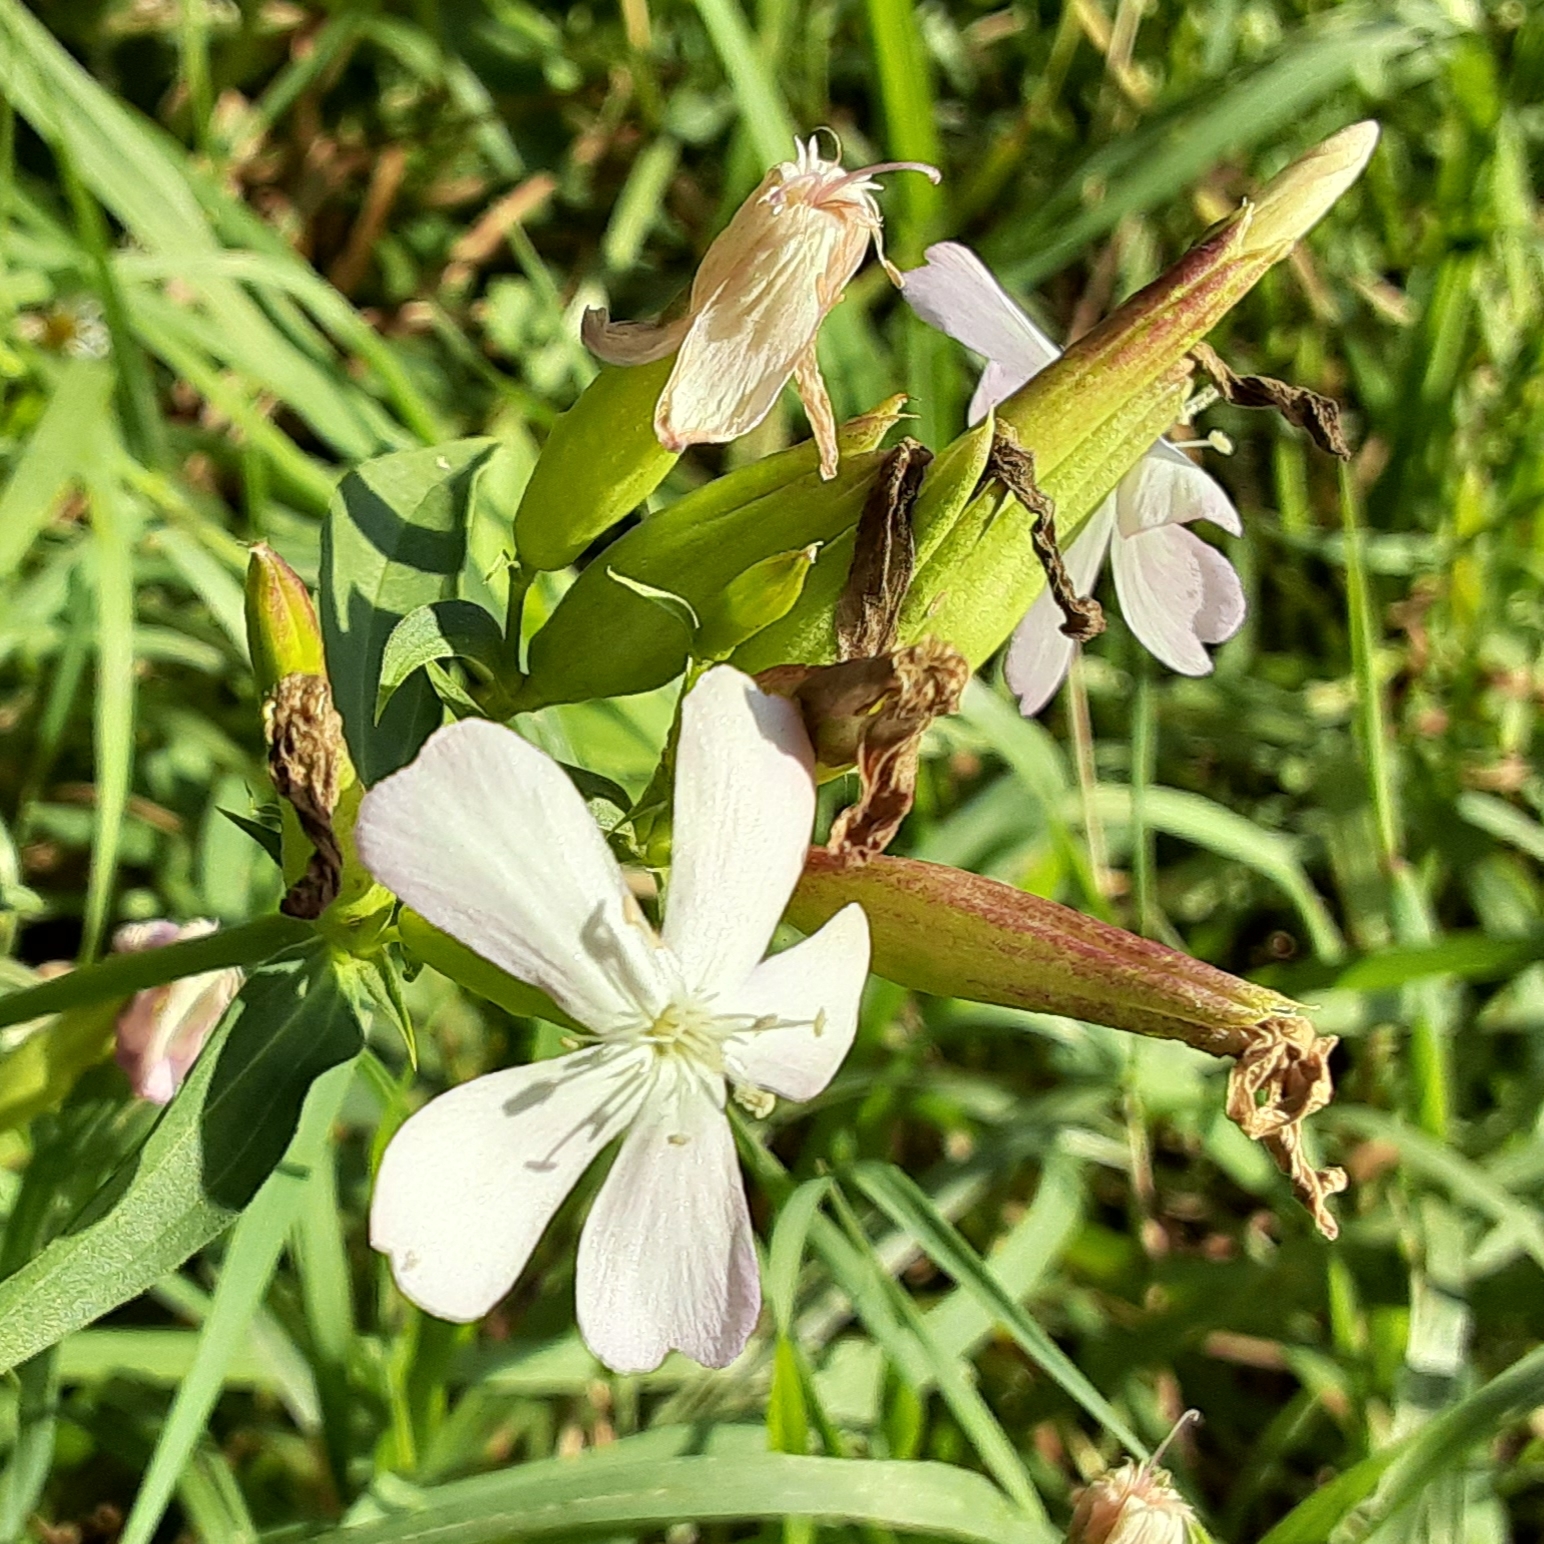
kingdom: Plantae
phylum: Tracheophyta
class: Magnoliopsida
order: Caryophyllales
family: Caryophyllaceae
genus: Saponaria
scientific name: Saponaria officinalis
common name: Soapwort
